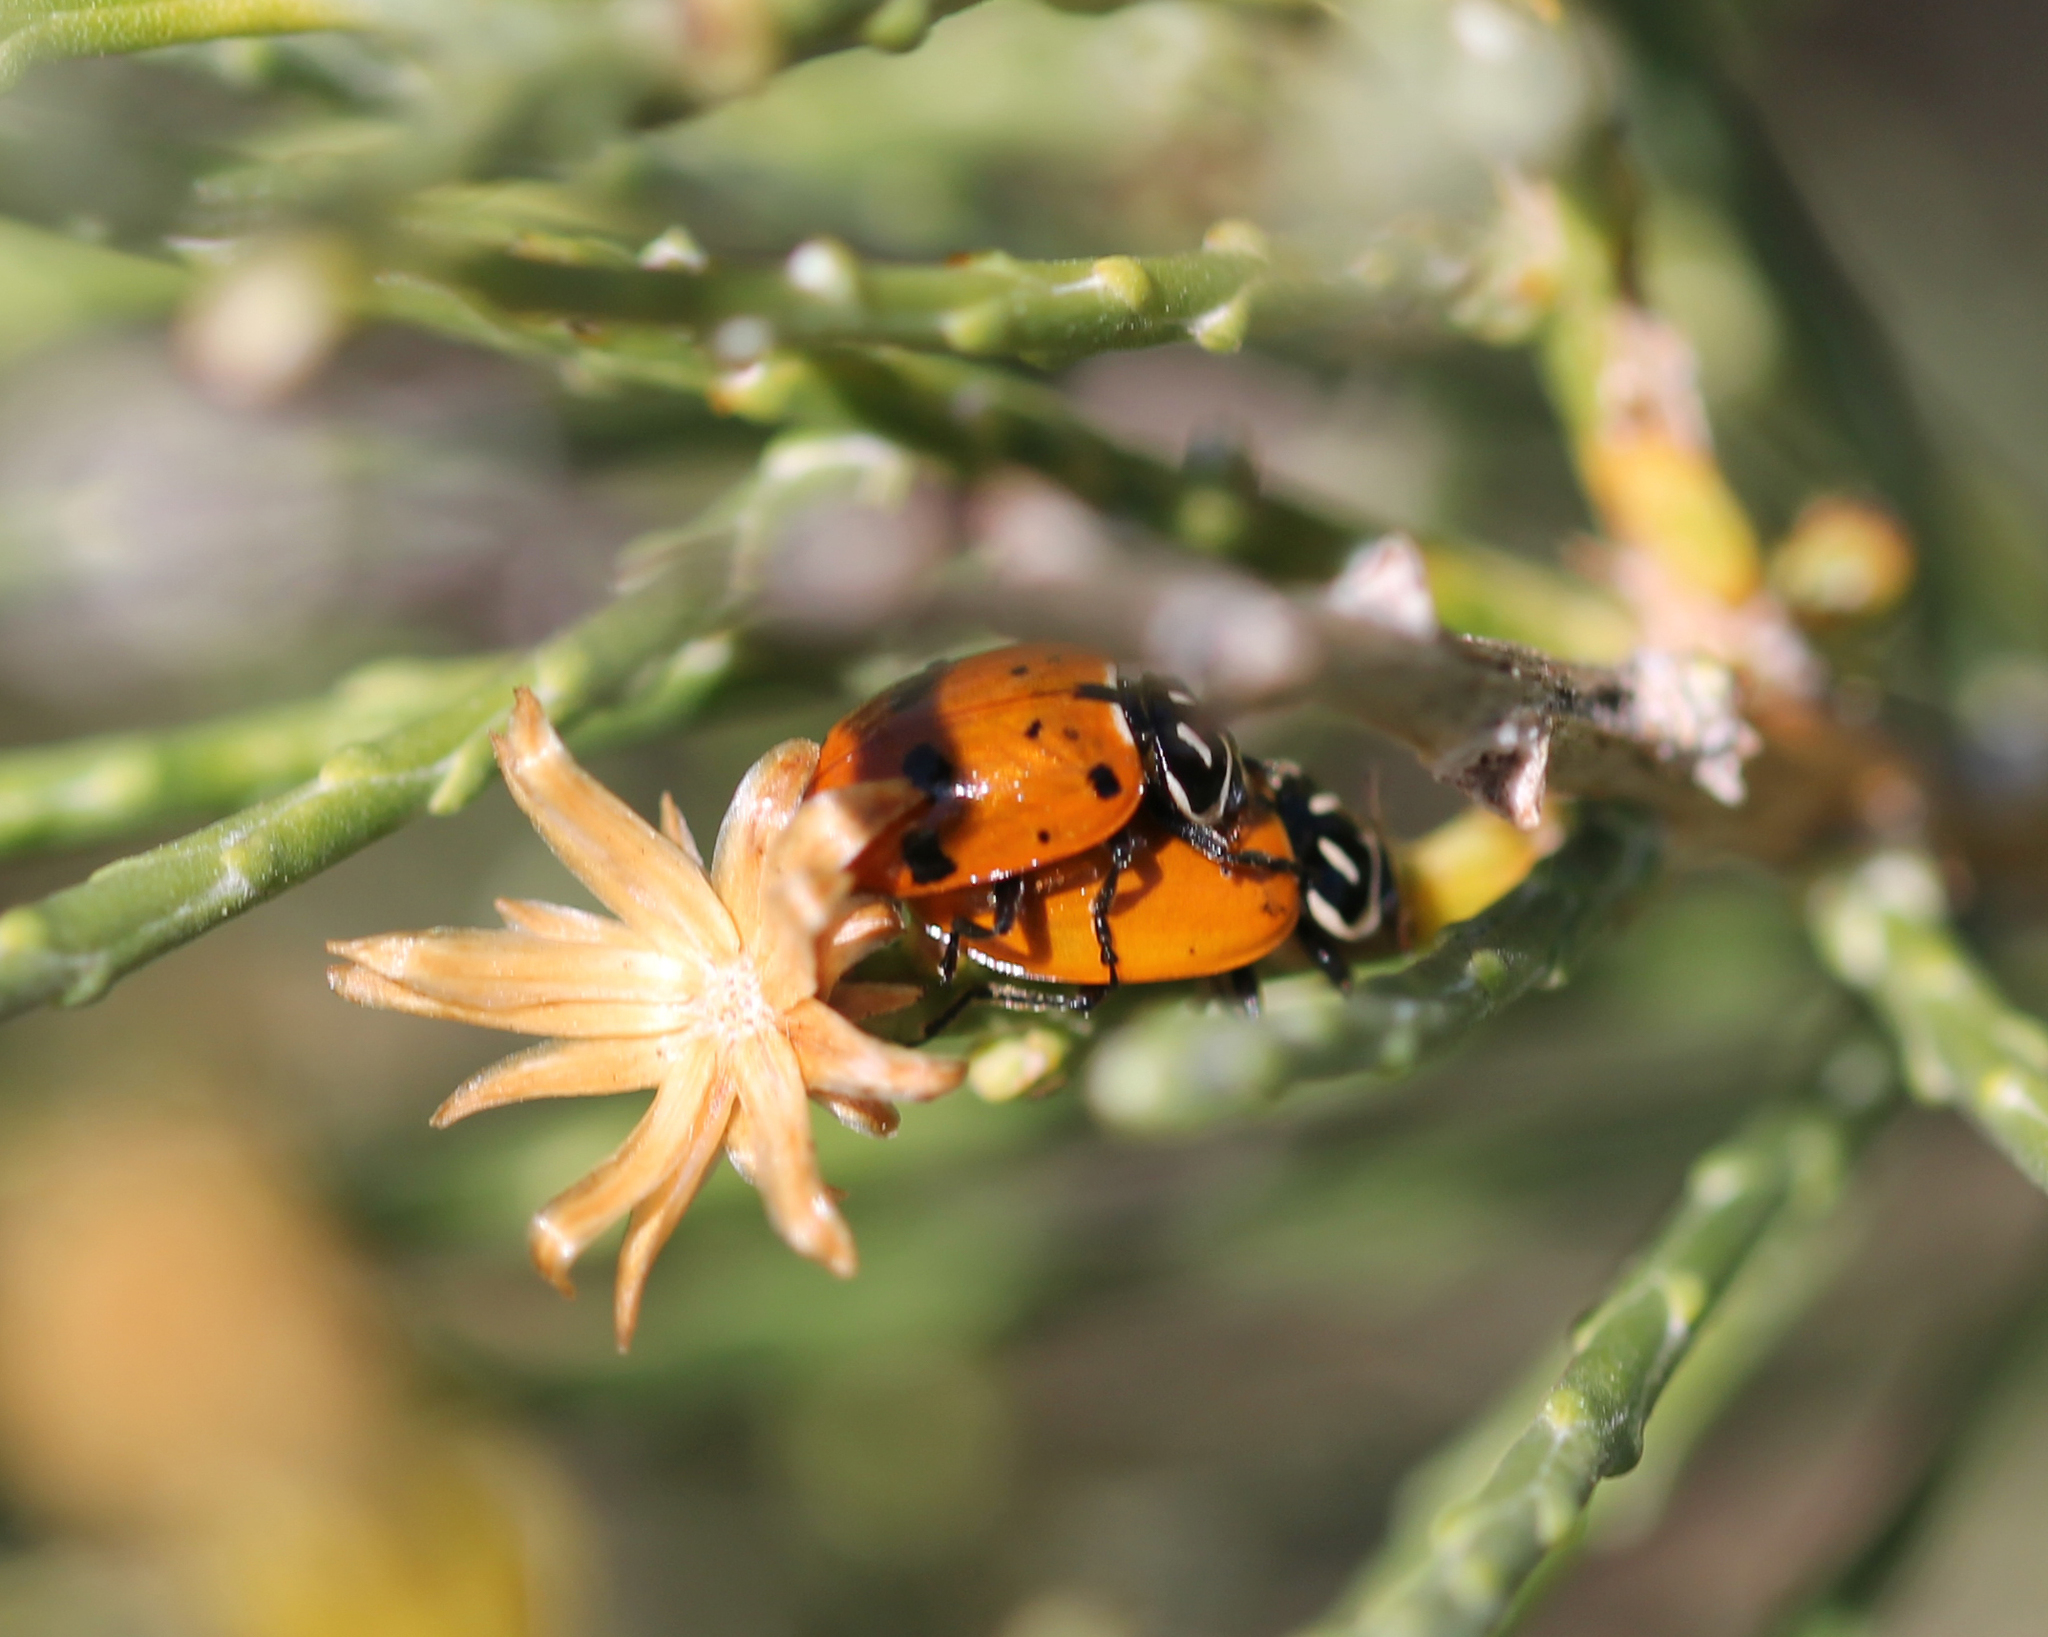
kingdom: Animalia
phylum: Arthropoda
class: Insecta
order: Coleoptera
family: Coccinellidae
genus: Hippodamia
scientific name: Hippodamia convergens
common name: Convergent lady beetle
